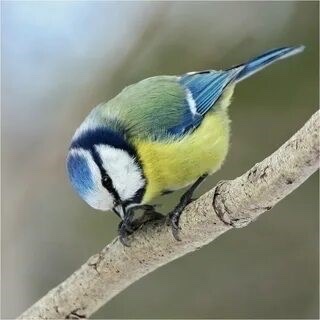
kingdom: Animalia
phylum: Chordata
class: Aves
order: Passeriformes
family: Paridae
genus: Cyanistes
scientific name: Cyanistes caeruleus
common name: Eurasian blue tit
